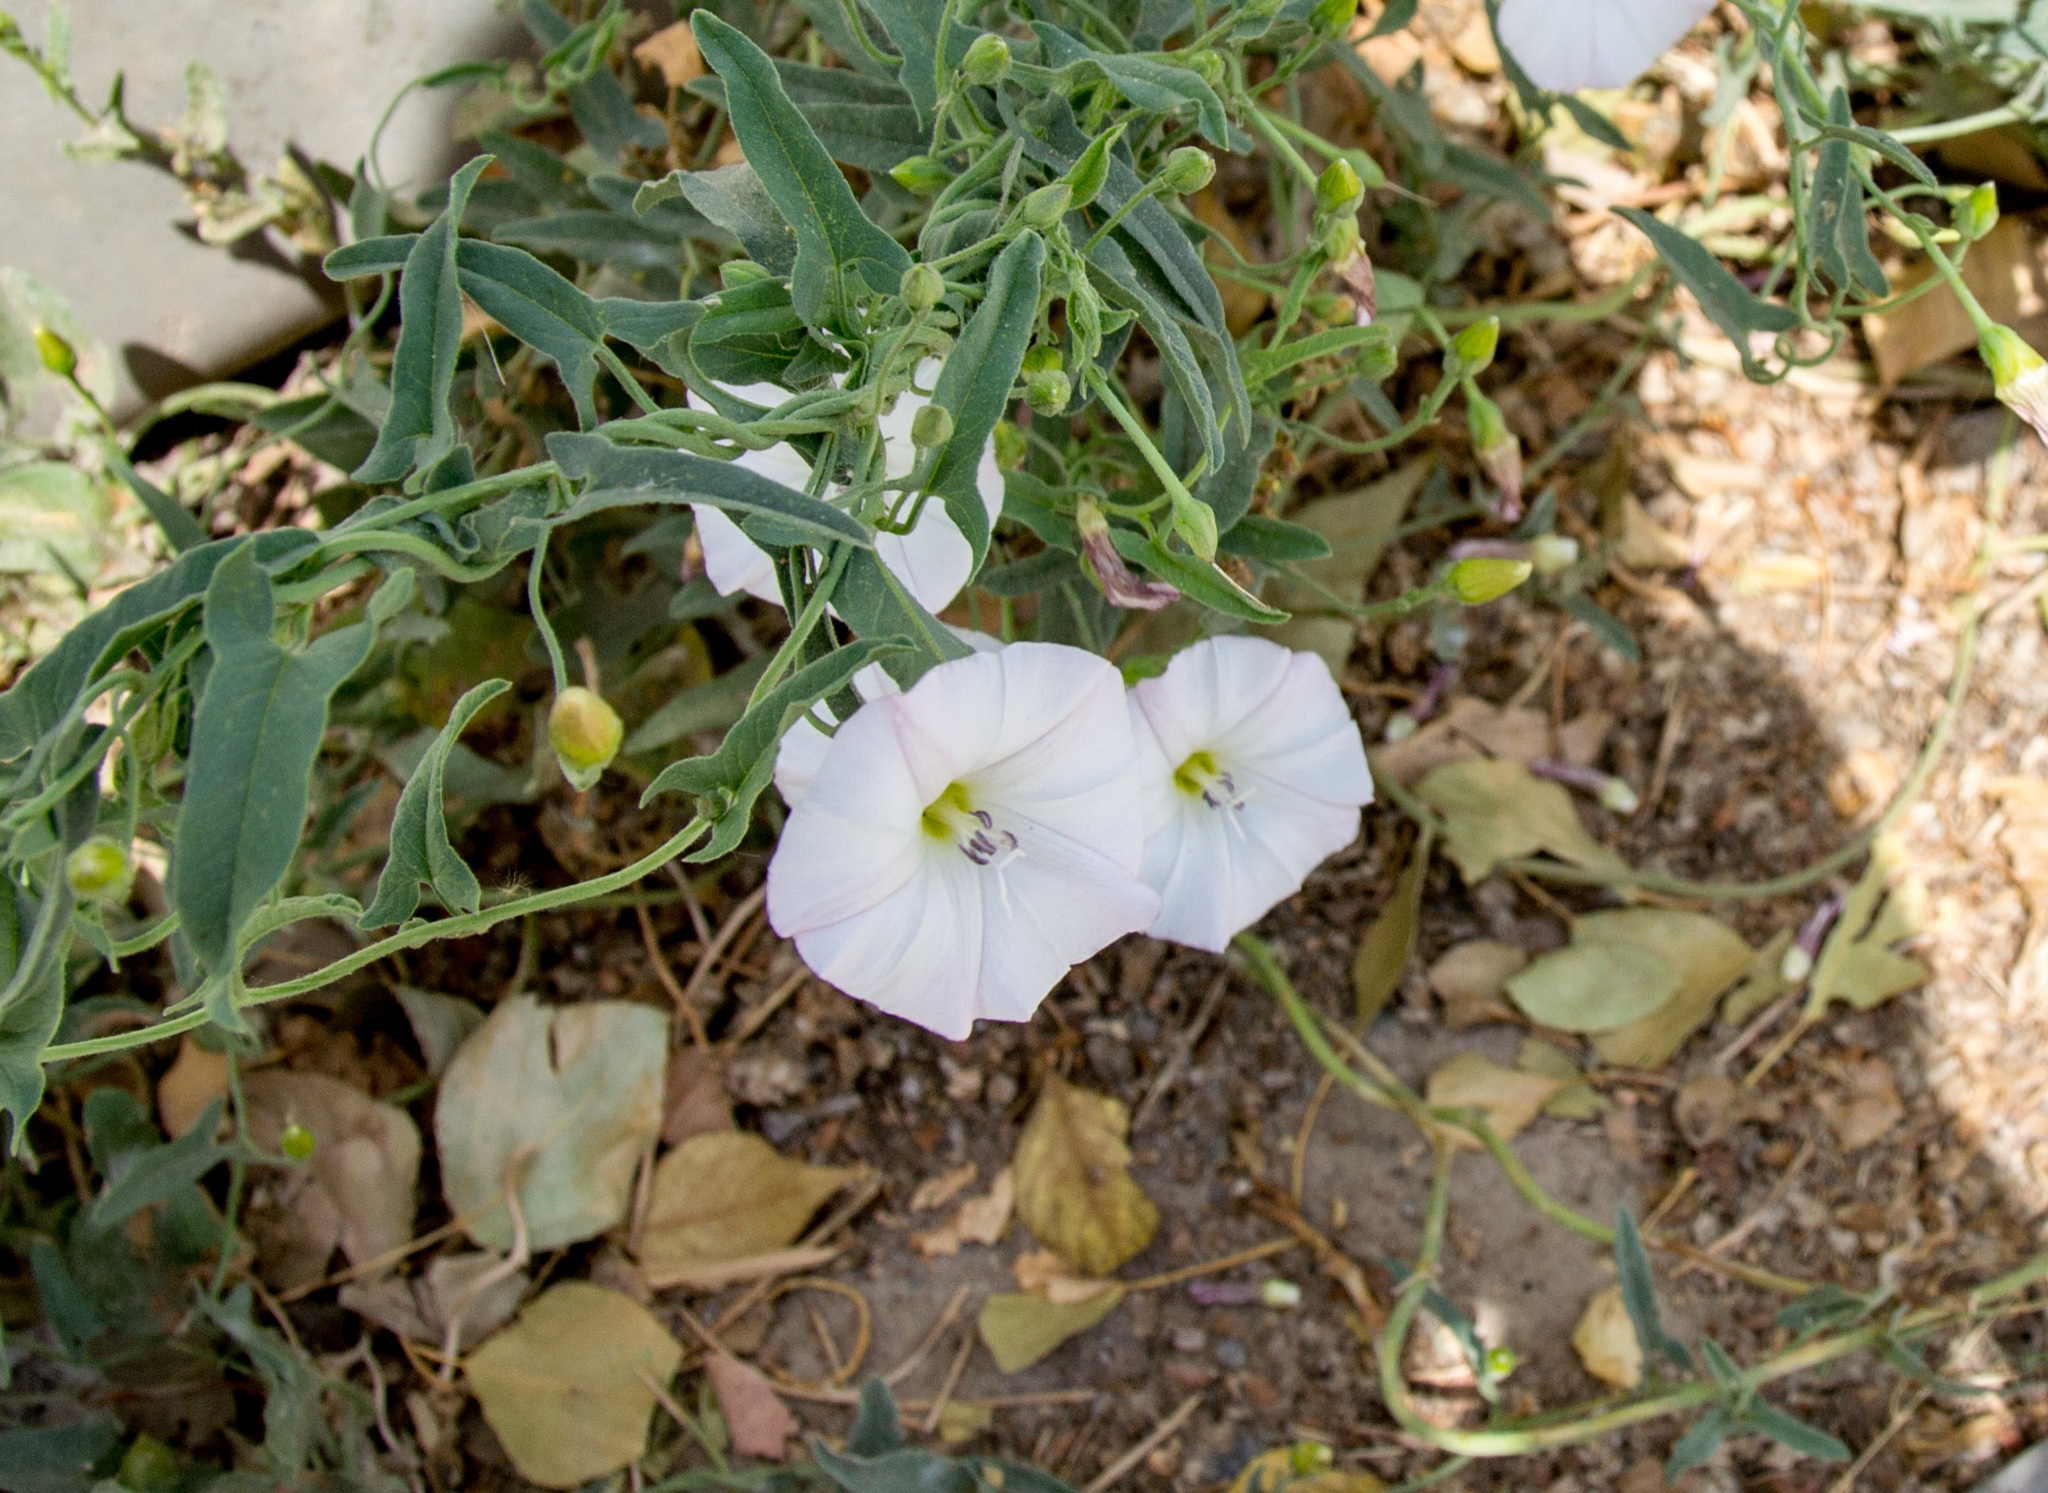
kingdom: Plantae
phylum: Tracheophyta
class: Magnoliopsida
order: Solanales
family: Convolvulaceae
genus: Convolvulus
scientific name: Convolvulus arvensis
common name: Field bindweed
